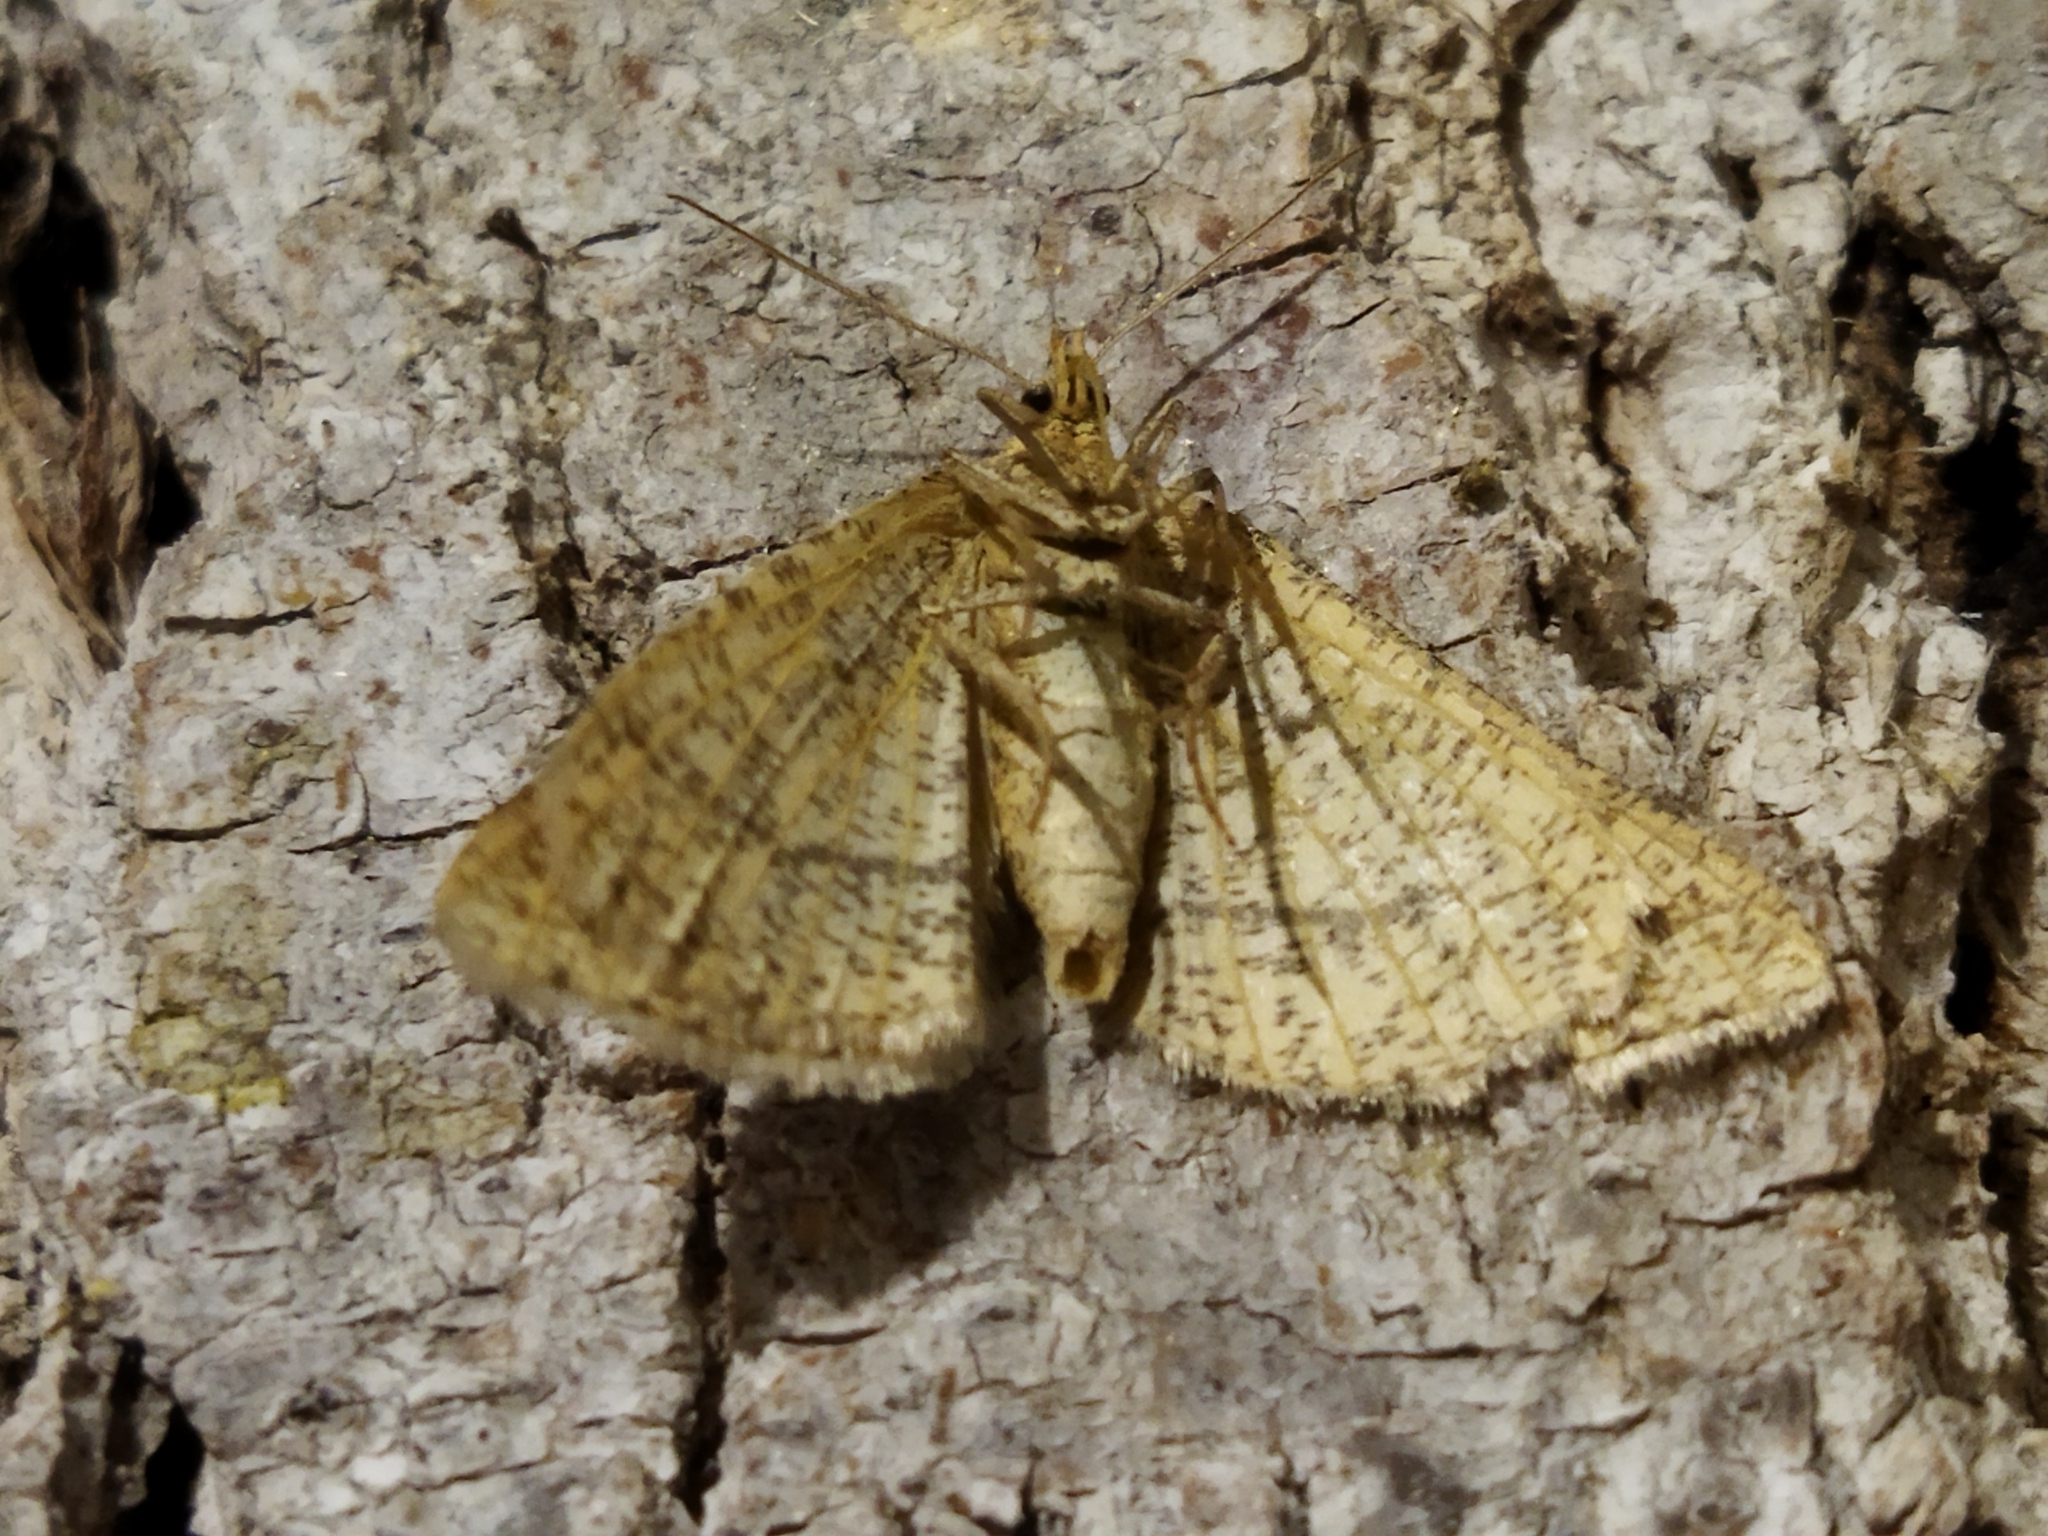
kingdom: Animalia
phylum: Arthropoda
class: Insecta
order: Lepidoptera
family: Geometridae
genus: Tephrina
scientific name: Tephrina arenacearia
